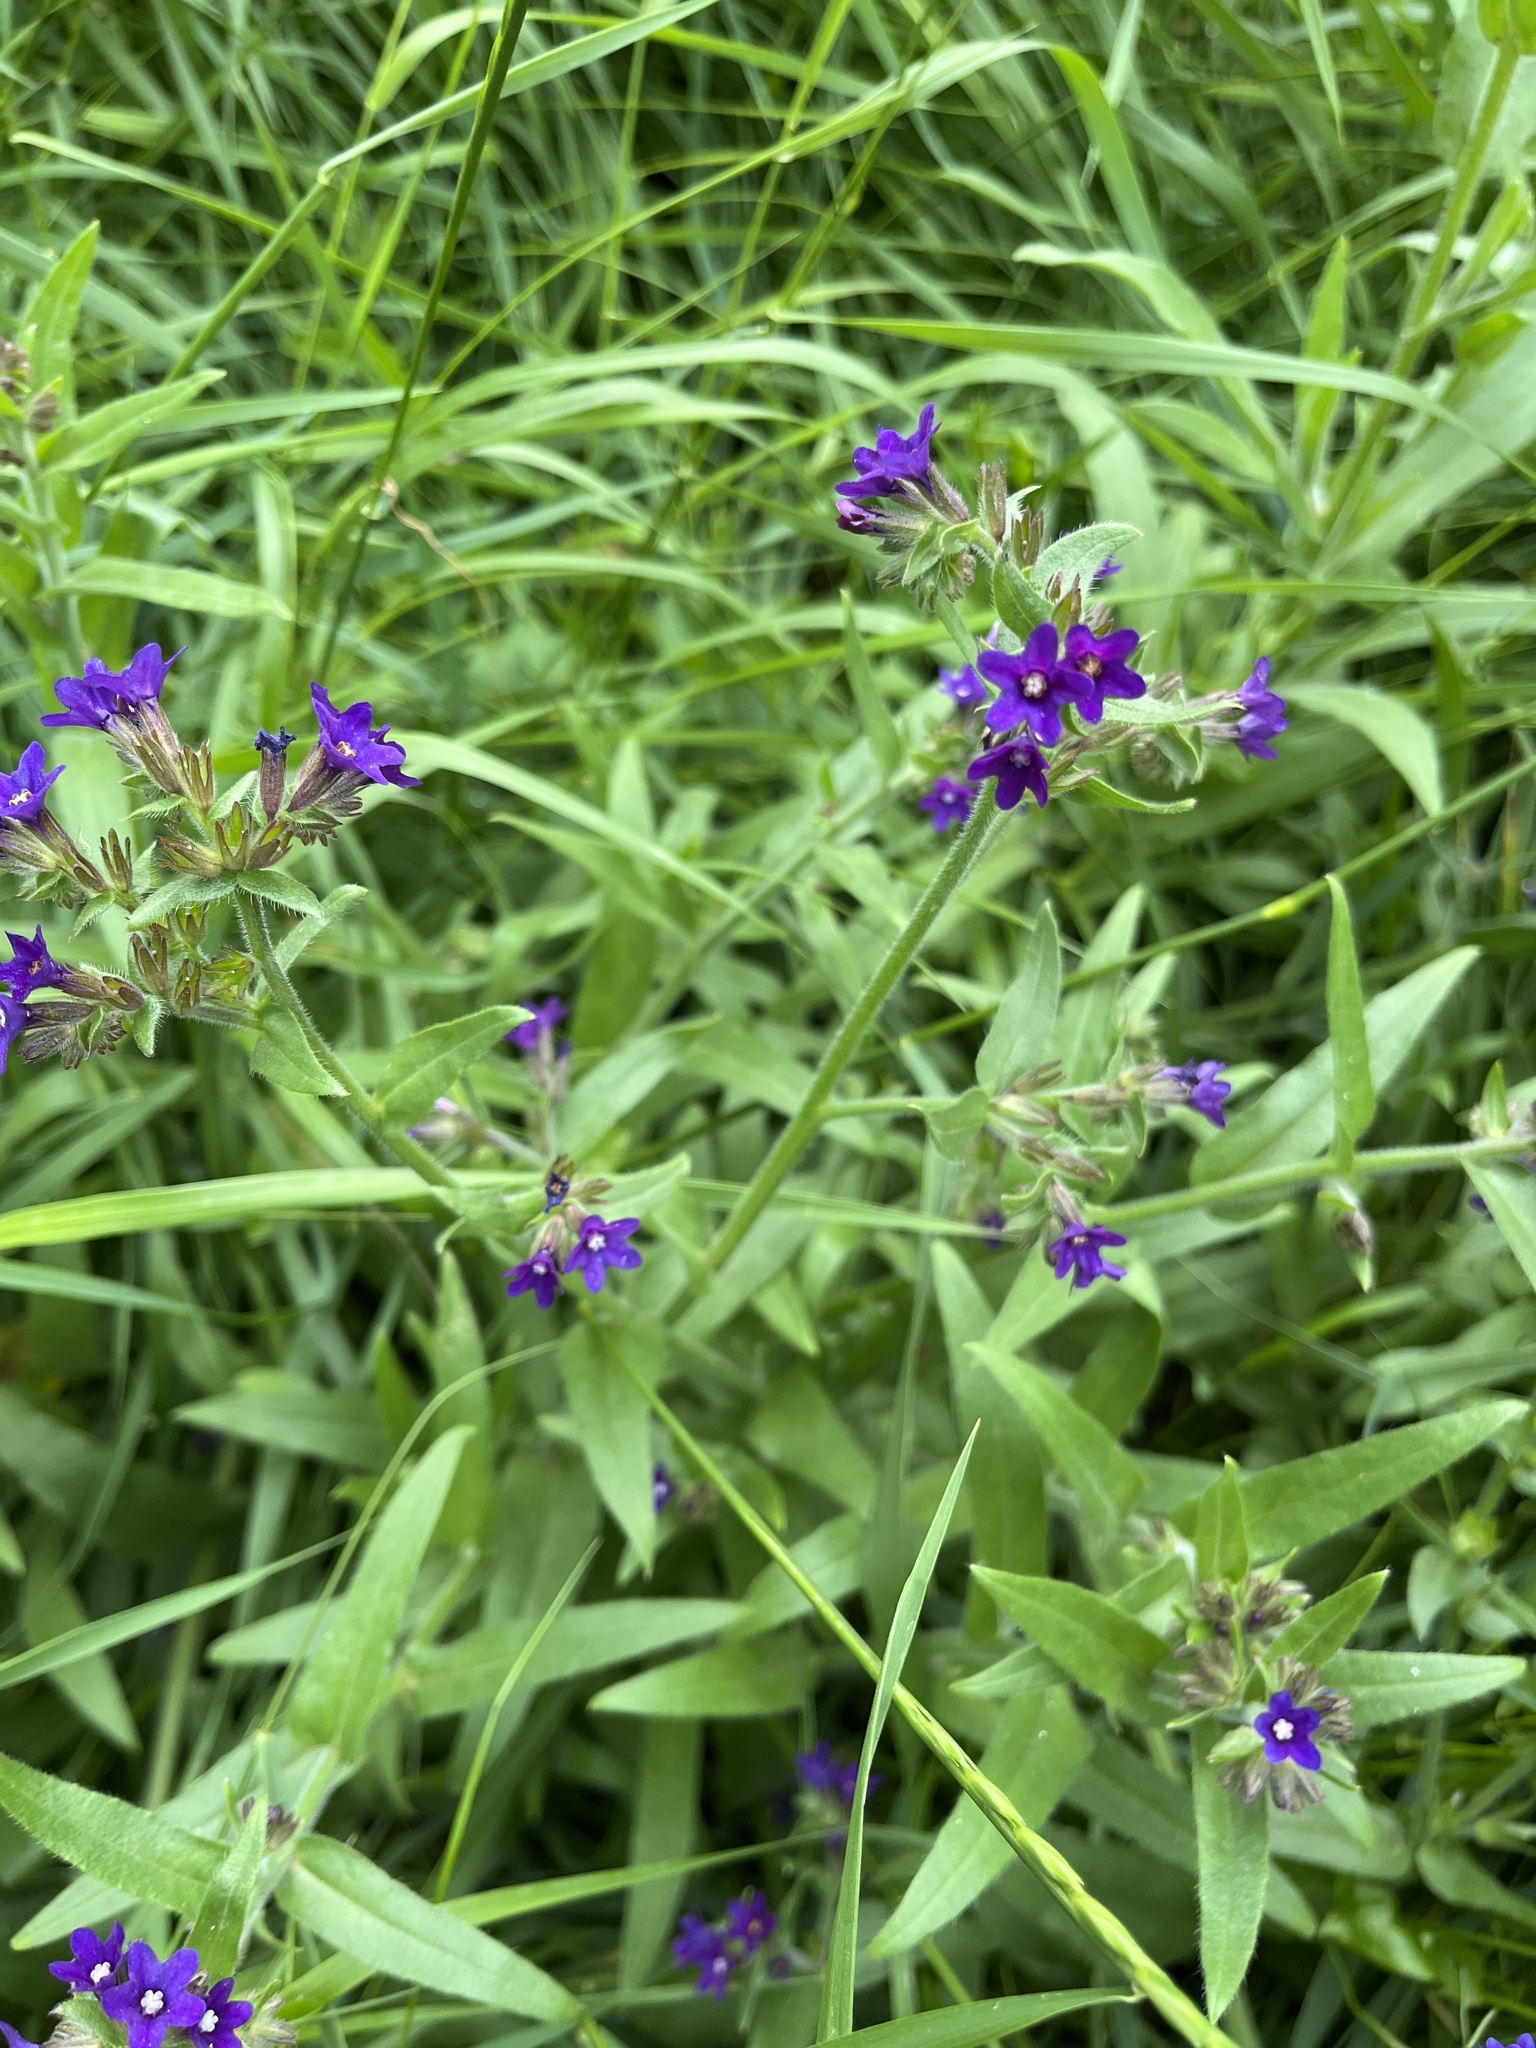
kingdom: Plantae
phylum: Tracheophyta
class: Magnoliopsida
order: Boraginales
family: Boraginaceae
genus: Anchusa
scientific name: Anchusa officinalis
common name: Alkanet
